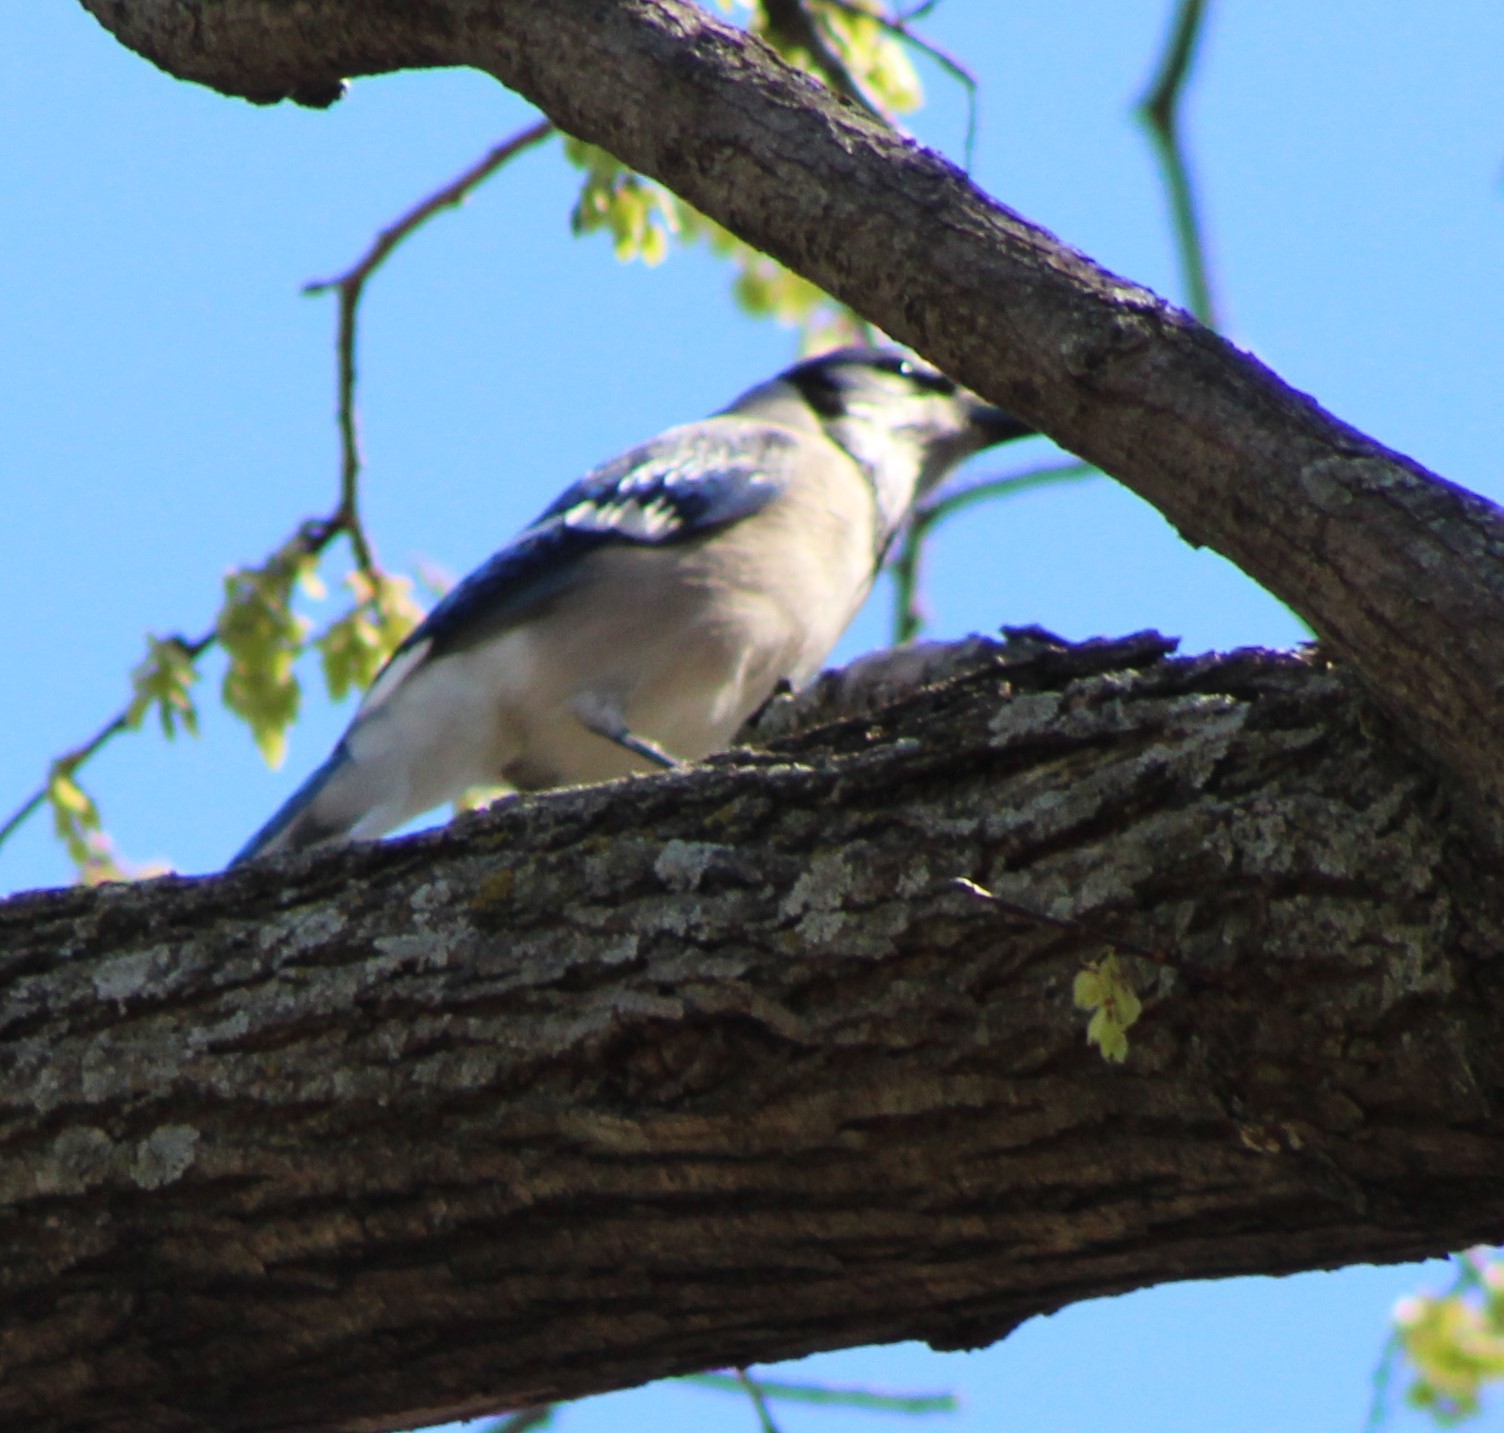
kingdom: Animalia
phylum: Chordata
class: Aves
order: Passeriformes
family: Corvidae
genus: Cyanocitta
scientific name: Cyanocitta cristata
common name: Blue jay
